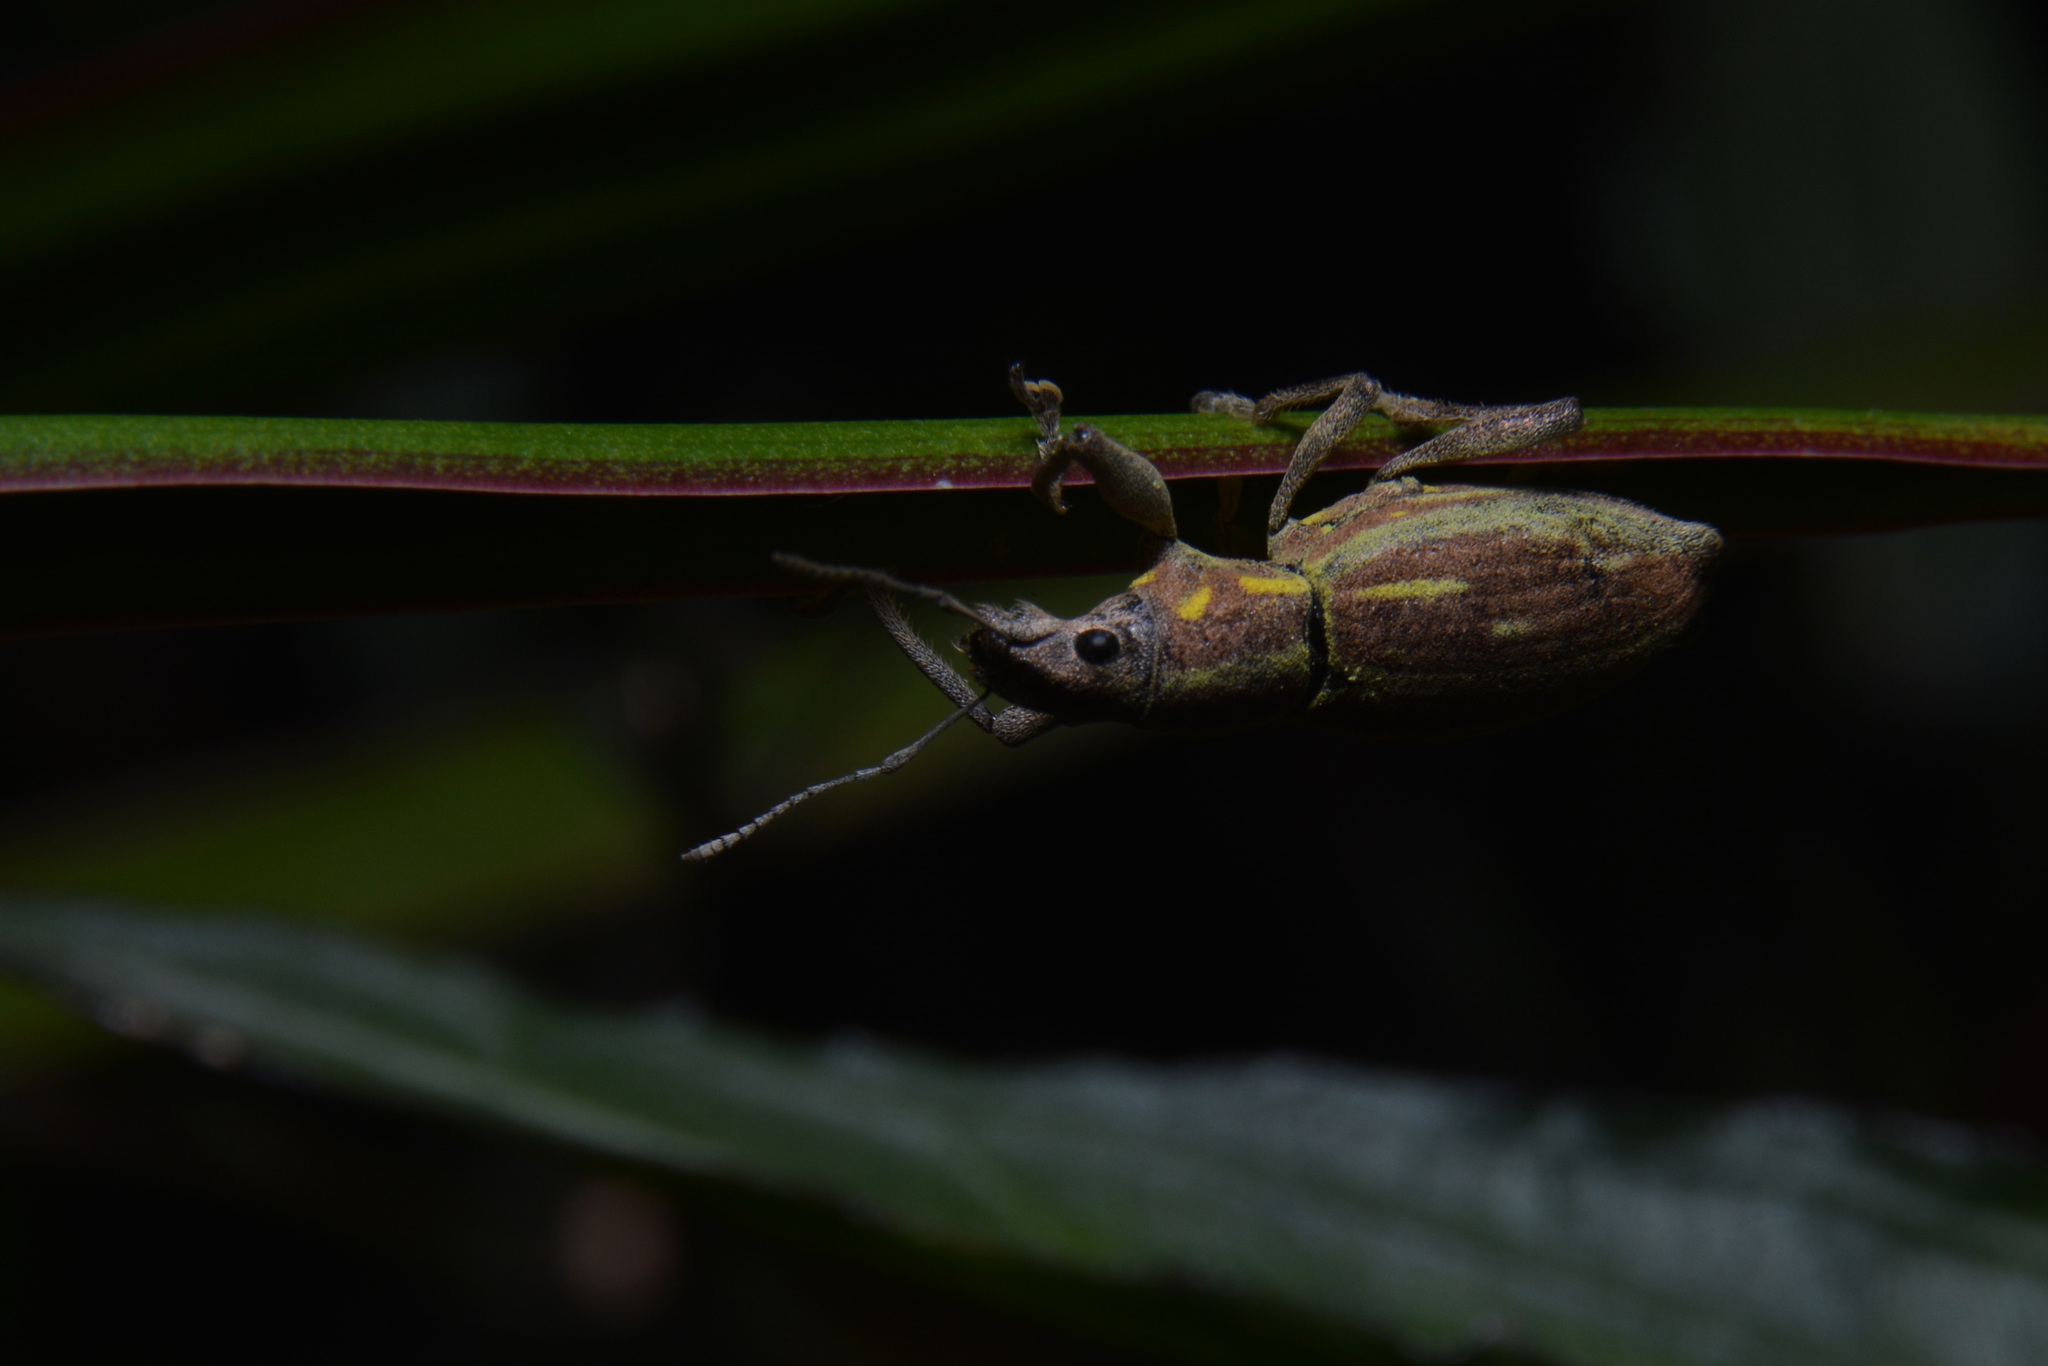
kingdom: Animalia
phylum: Arthropoda
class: Insecta
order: Coleoptera
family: Curculionidae
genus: Naupactus
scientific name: Naupactus xanthographus
